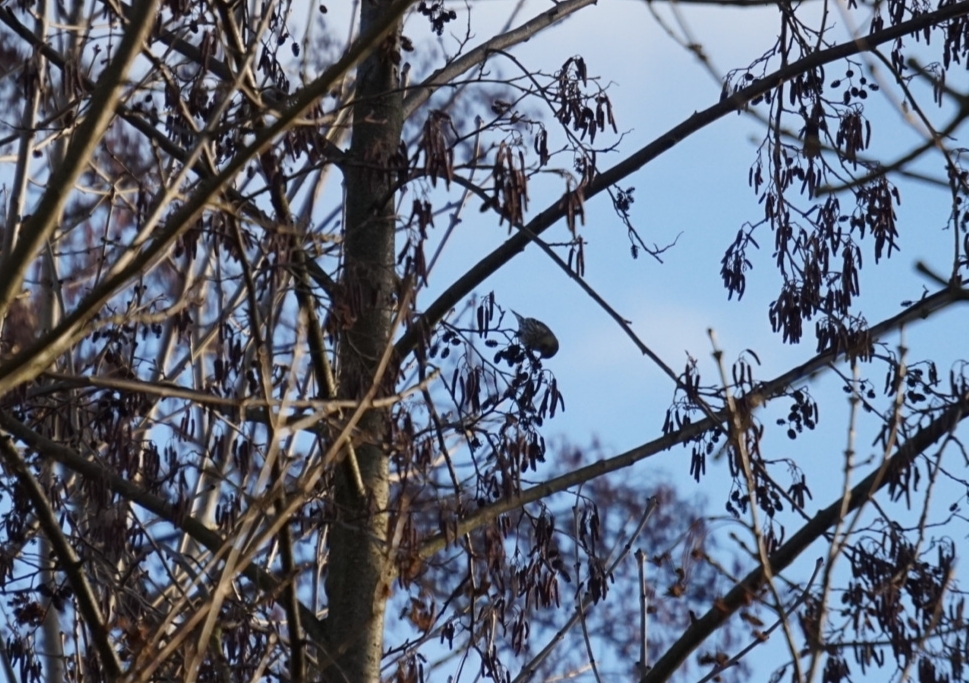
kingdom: Animalia
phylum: Chordata
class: Aves
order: Passeriformes
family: Fringillidae
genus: Spinus
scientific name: Spinus spinus
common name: Eurasian siskin
